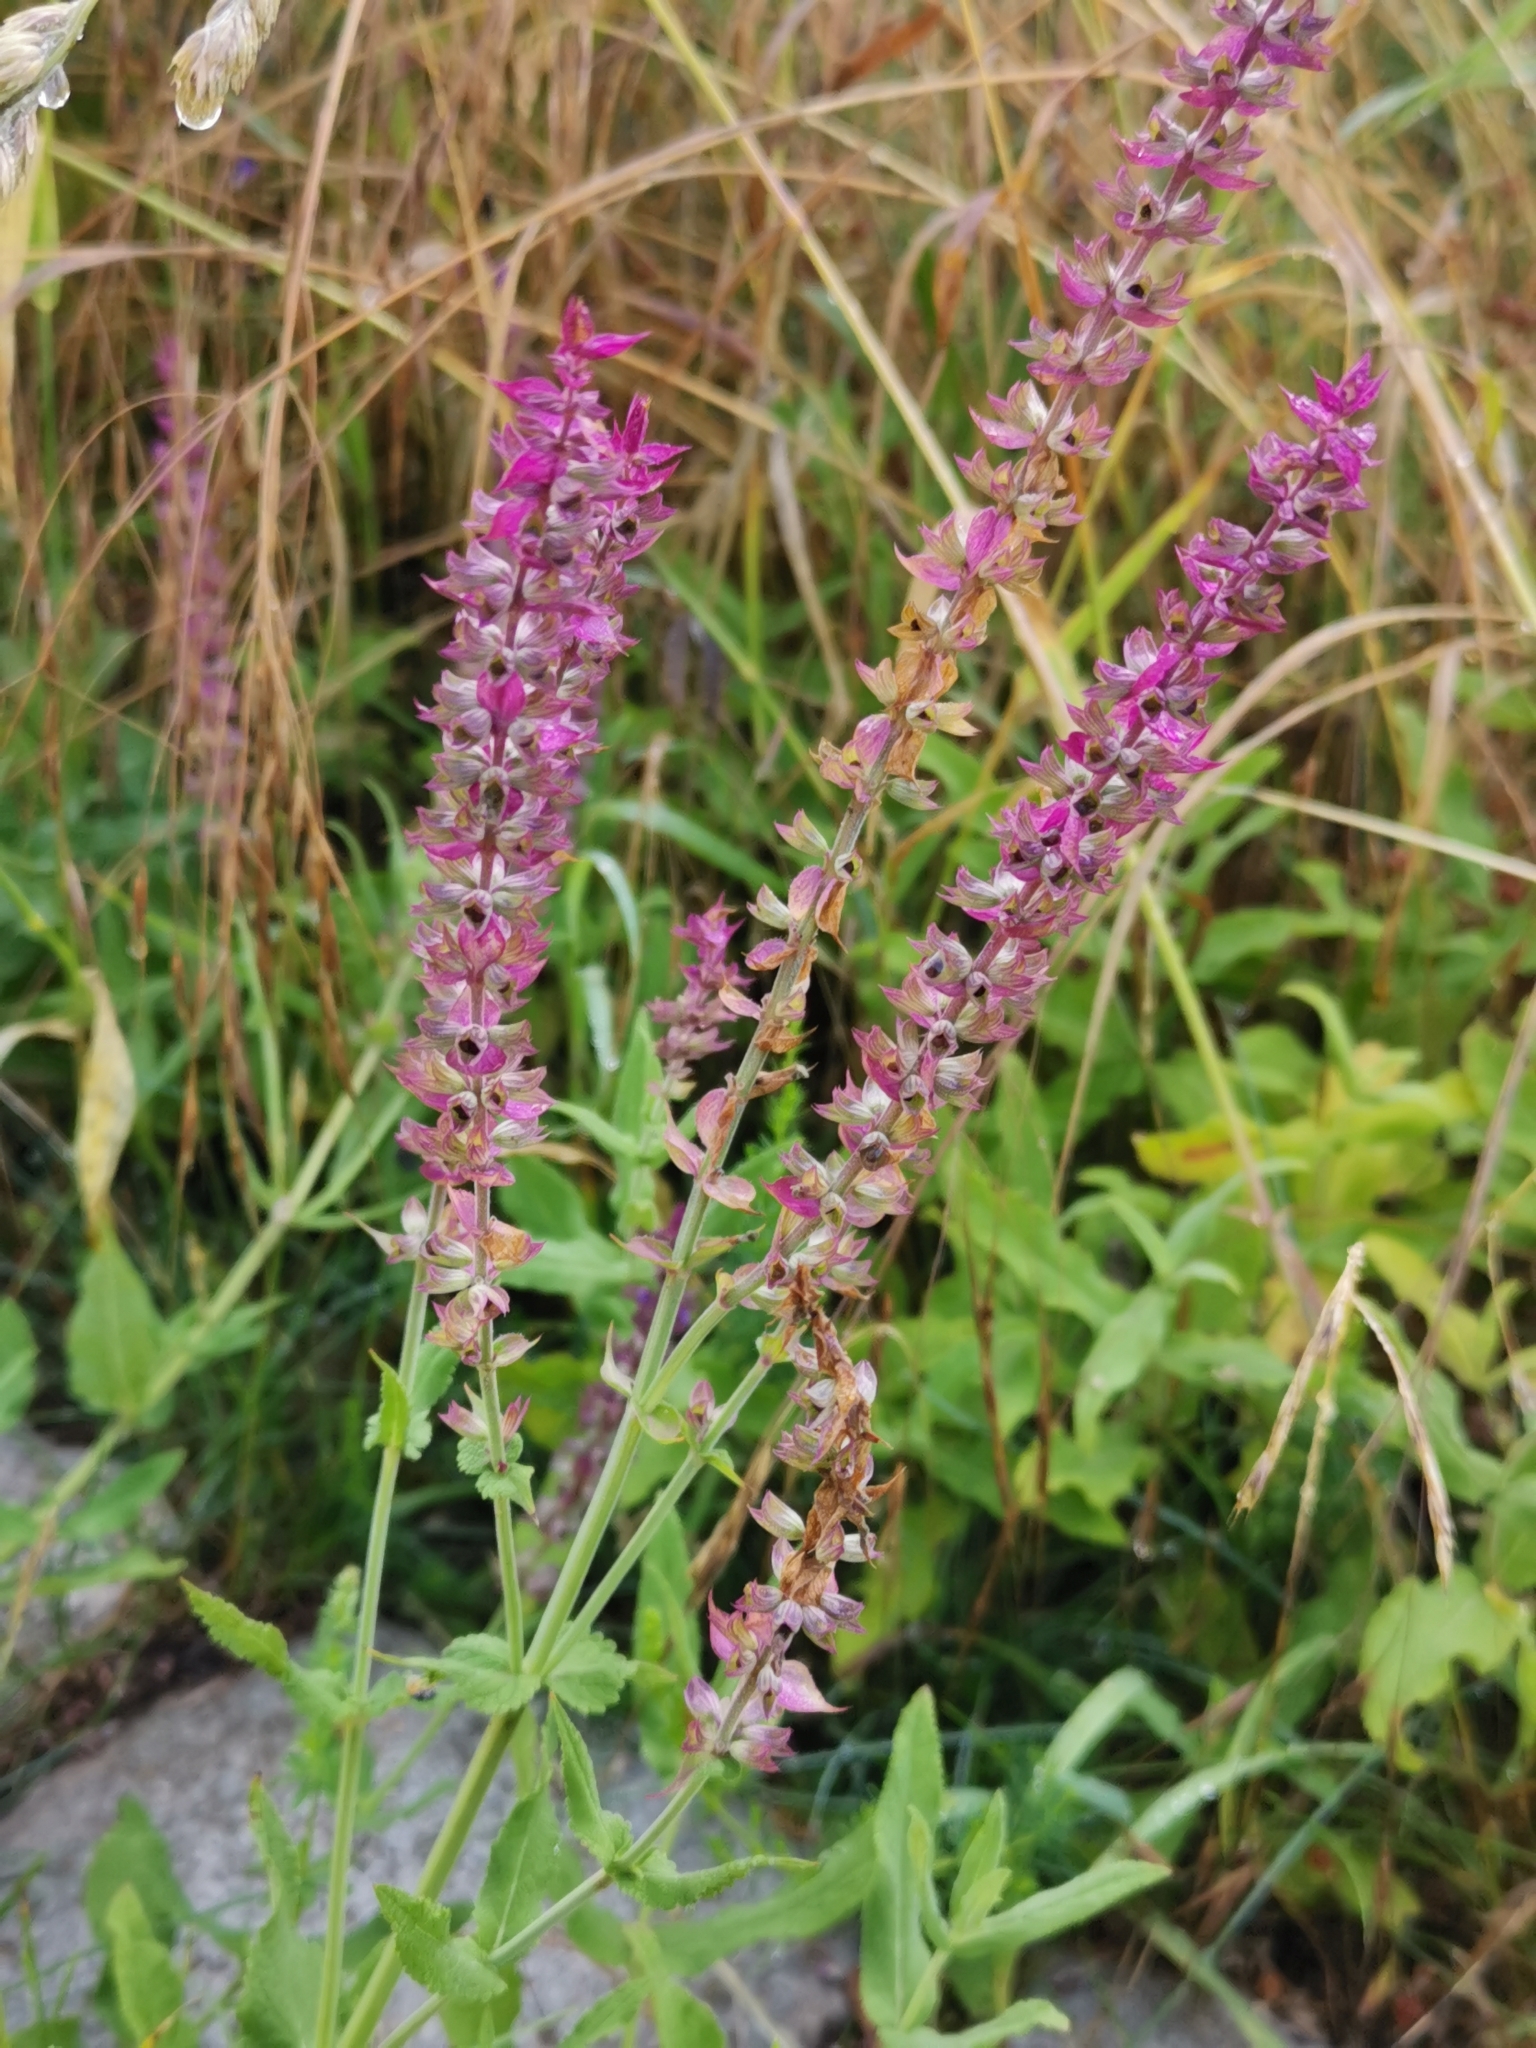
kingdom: Plantae
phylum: Tracheophyta
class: Magnoliopsida
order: Lamiales
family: Lamiaceae
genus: Salvia
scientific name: Salvia nemorosa
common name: Balkan clary
